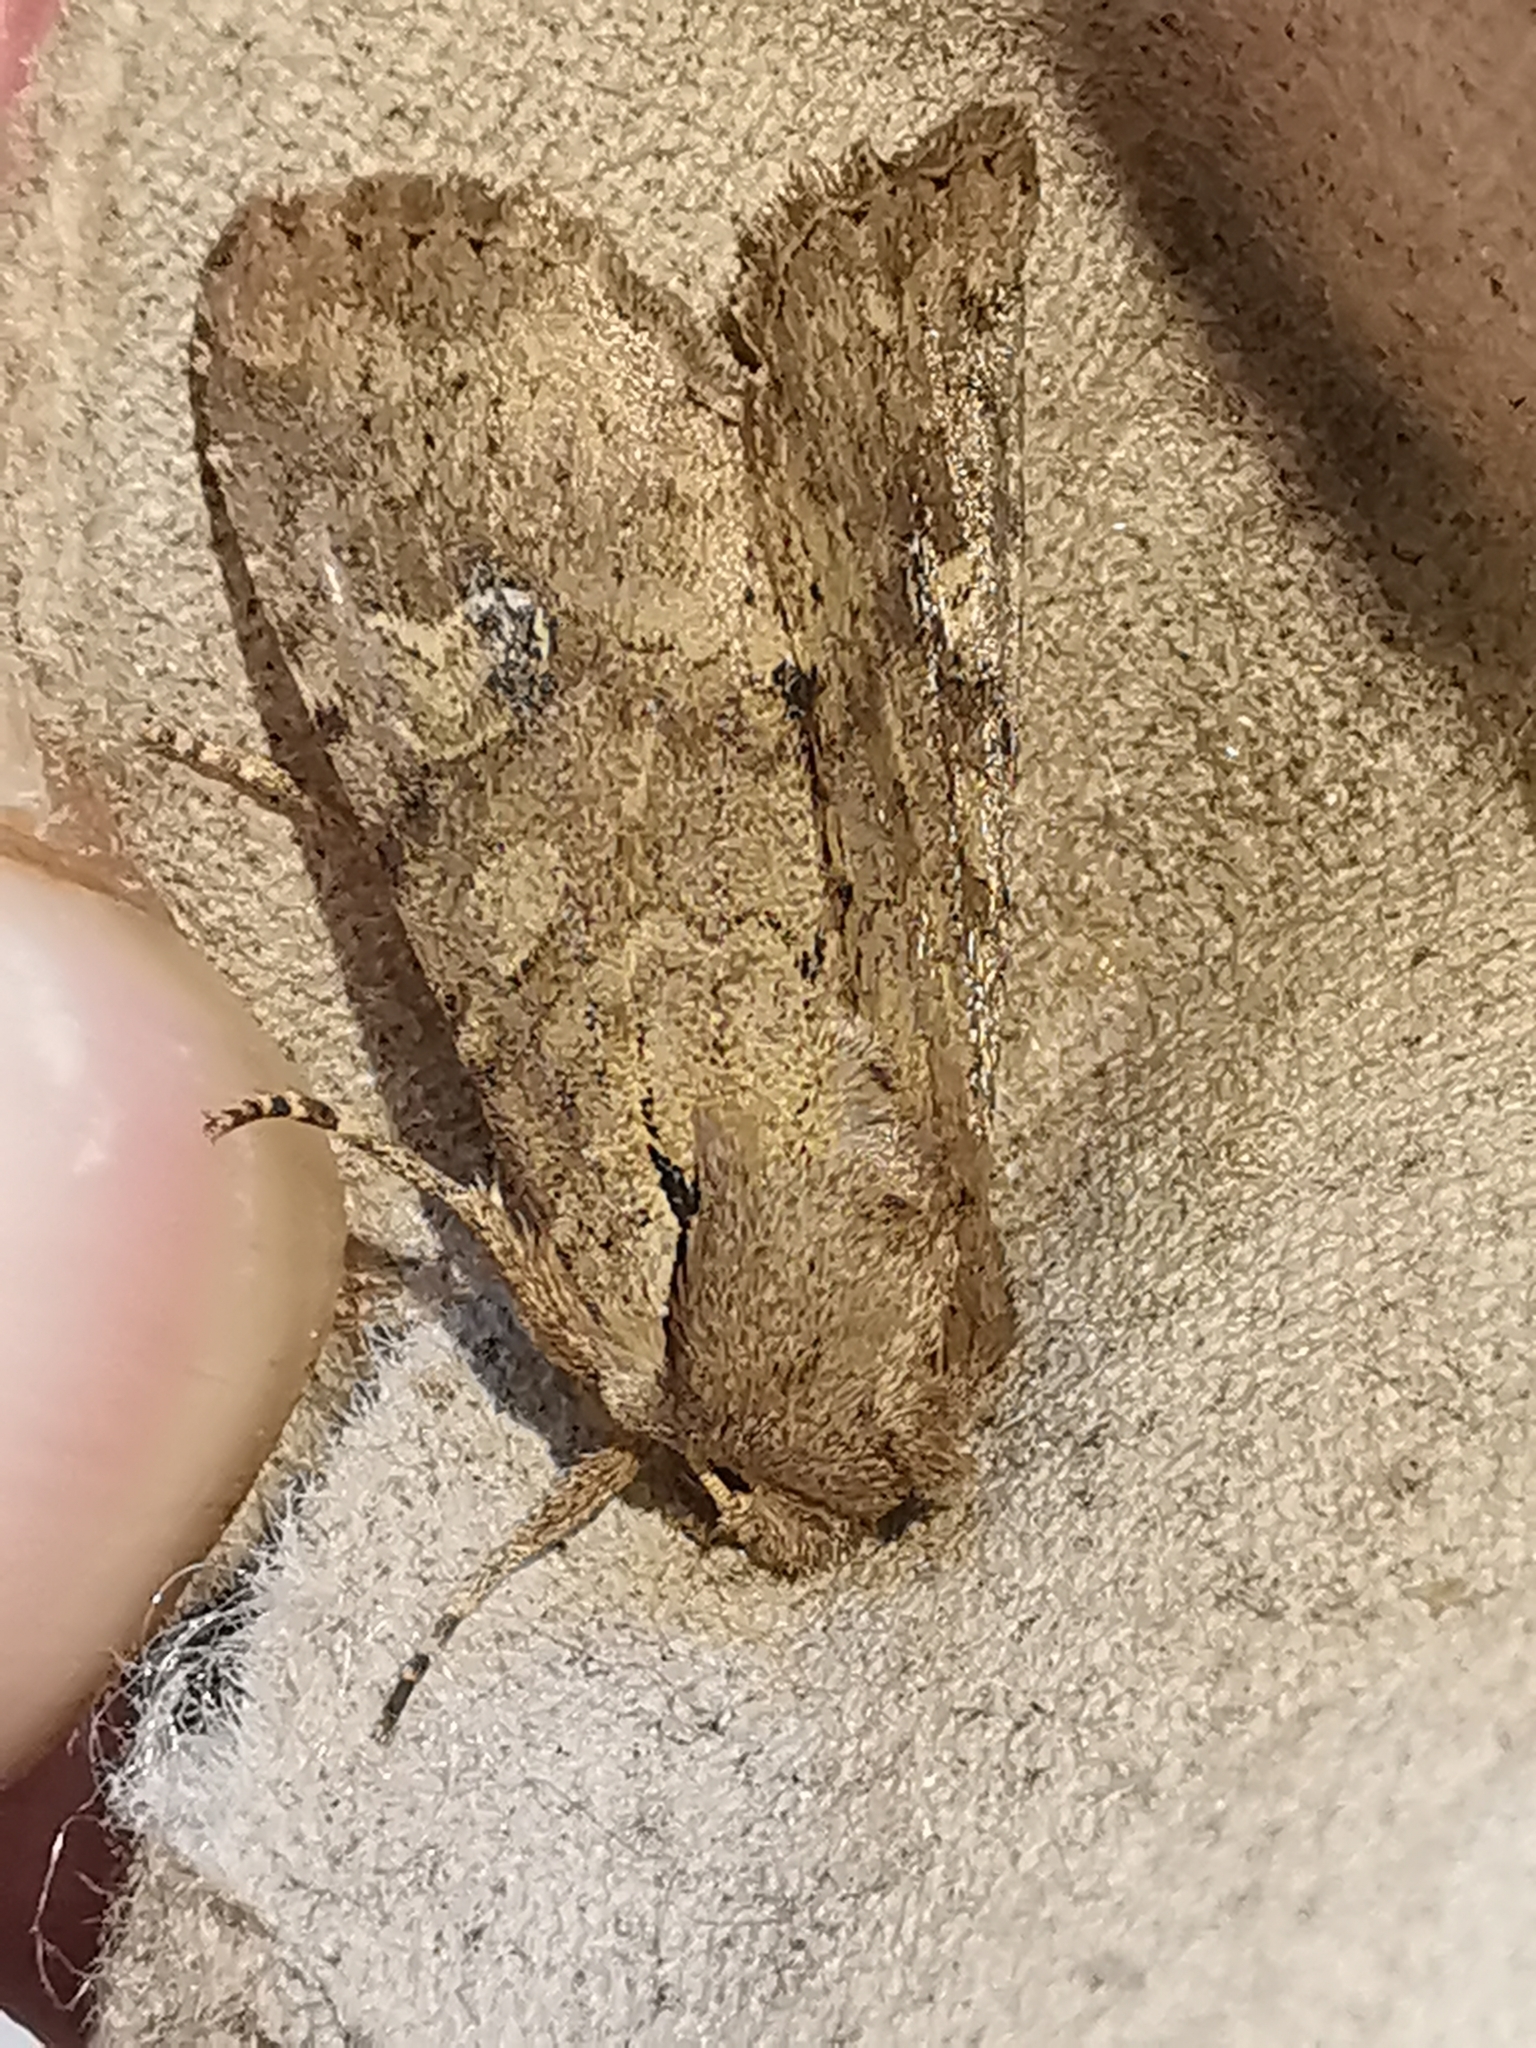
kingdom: Animalia
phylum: Arthropoda
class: Insecta
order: Lepidoptera
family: Noctuidae
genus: Apamea
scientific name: Apamea sordens
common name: Rustic shoulder-knot
